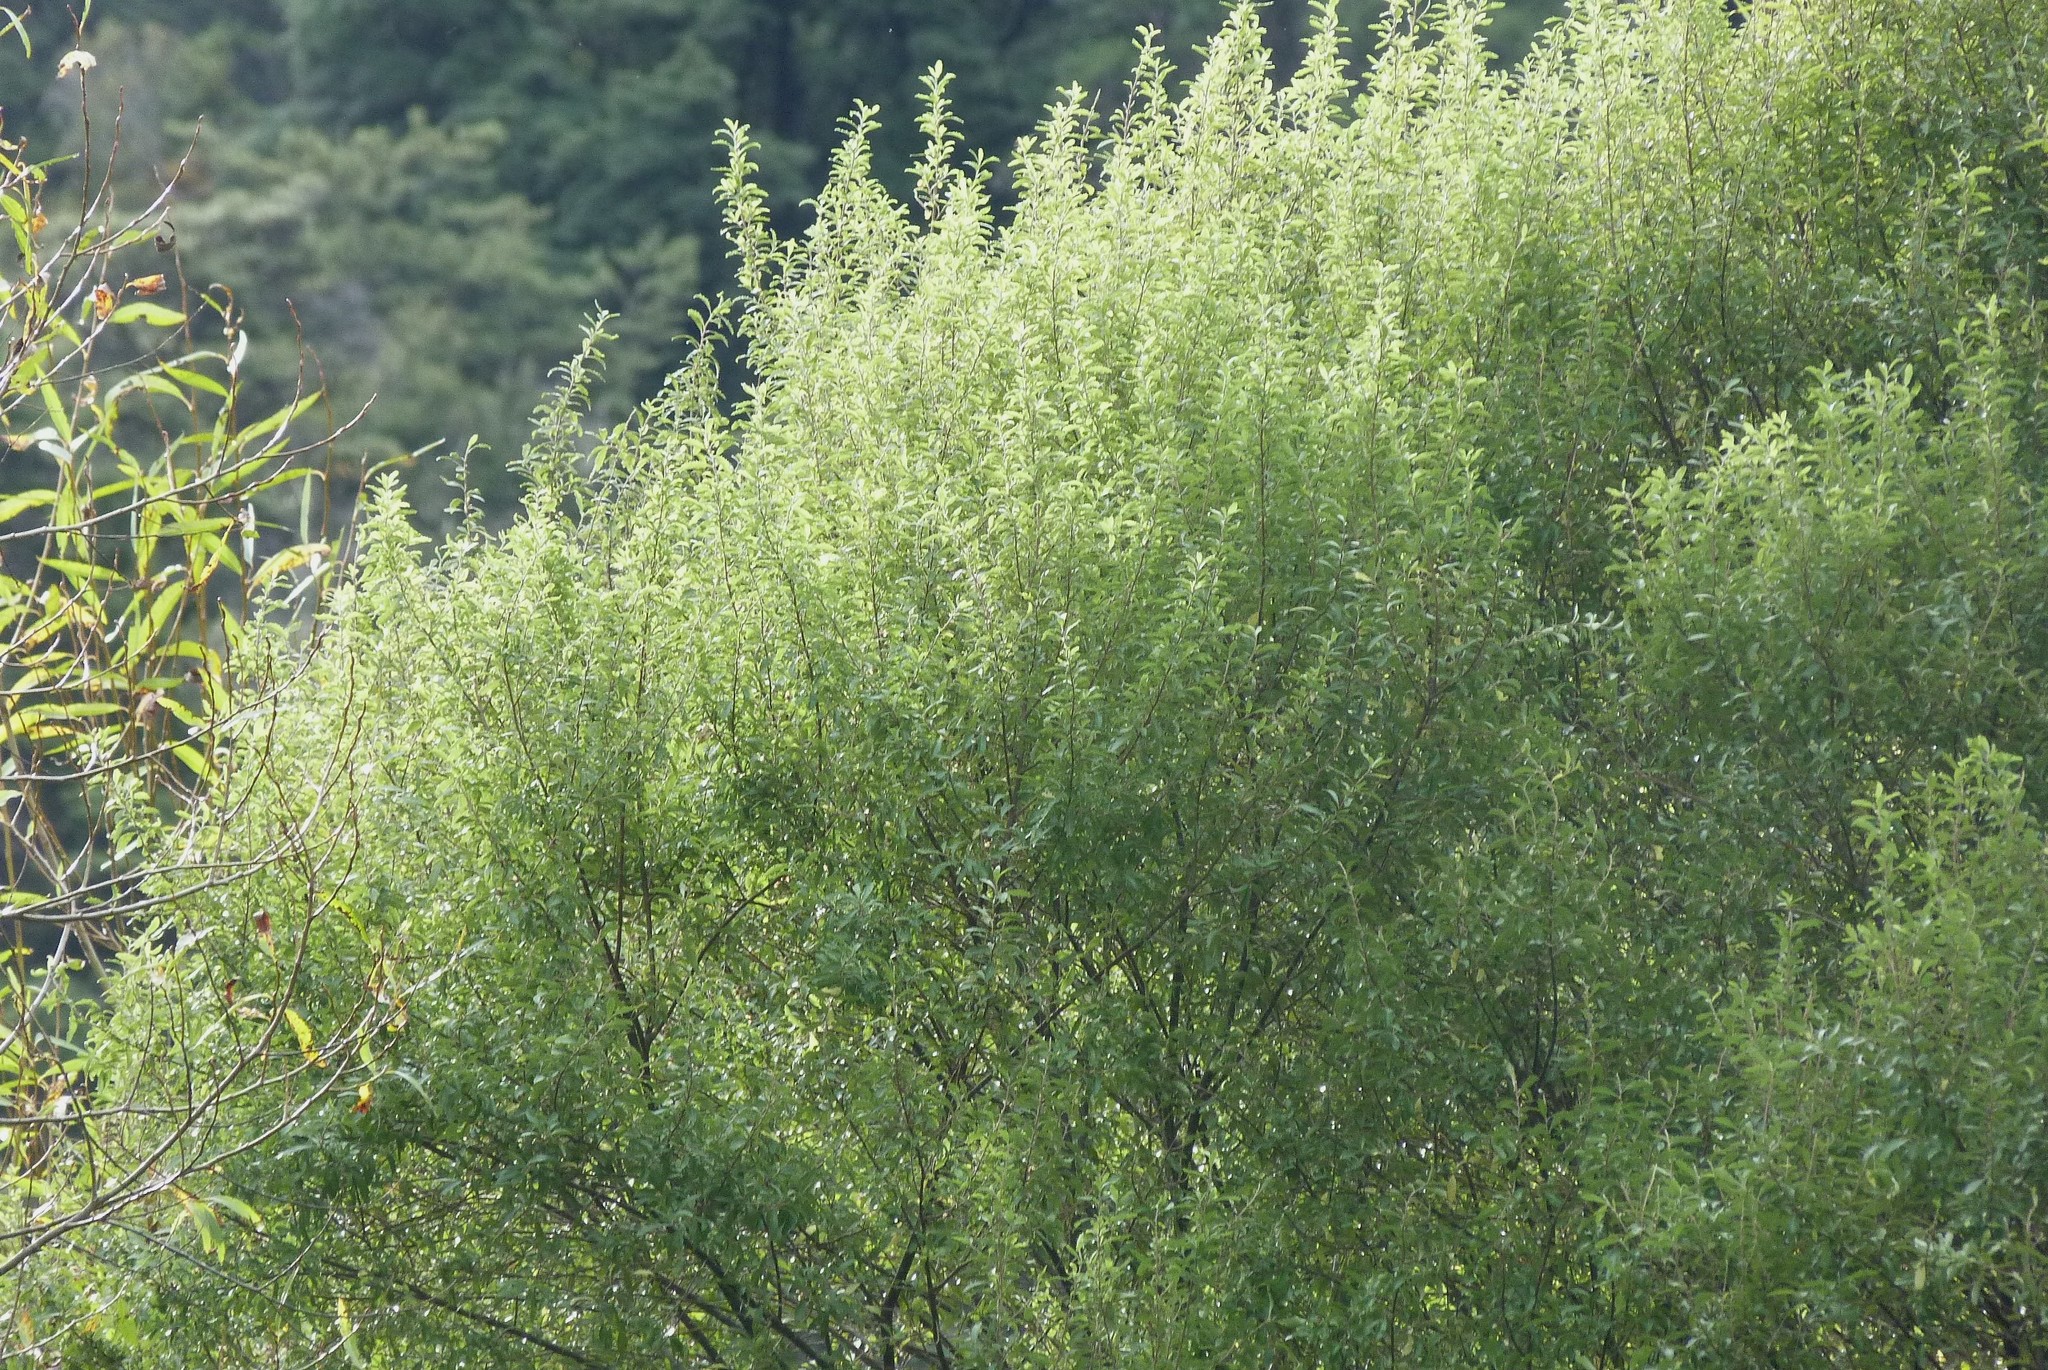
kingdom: Plantae
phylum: Tracheophyta
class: Magnoliopsida
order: Malvales
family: Malvaceae
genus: Hoheria
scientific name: Hoheria angustifolia
